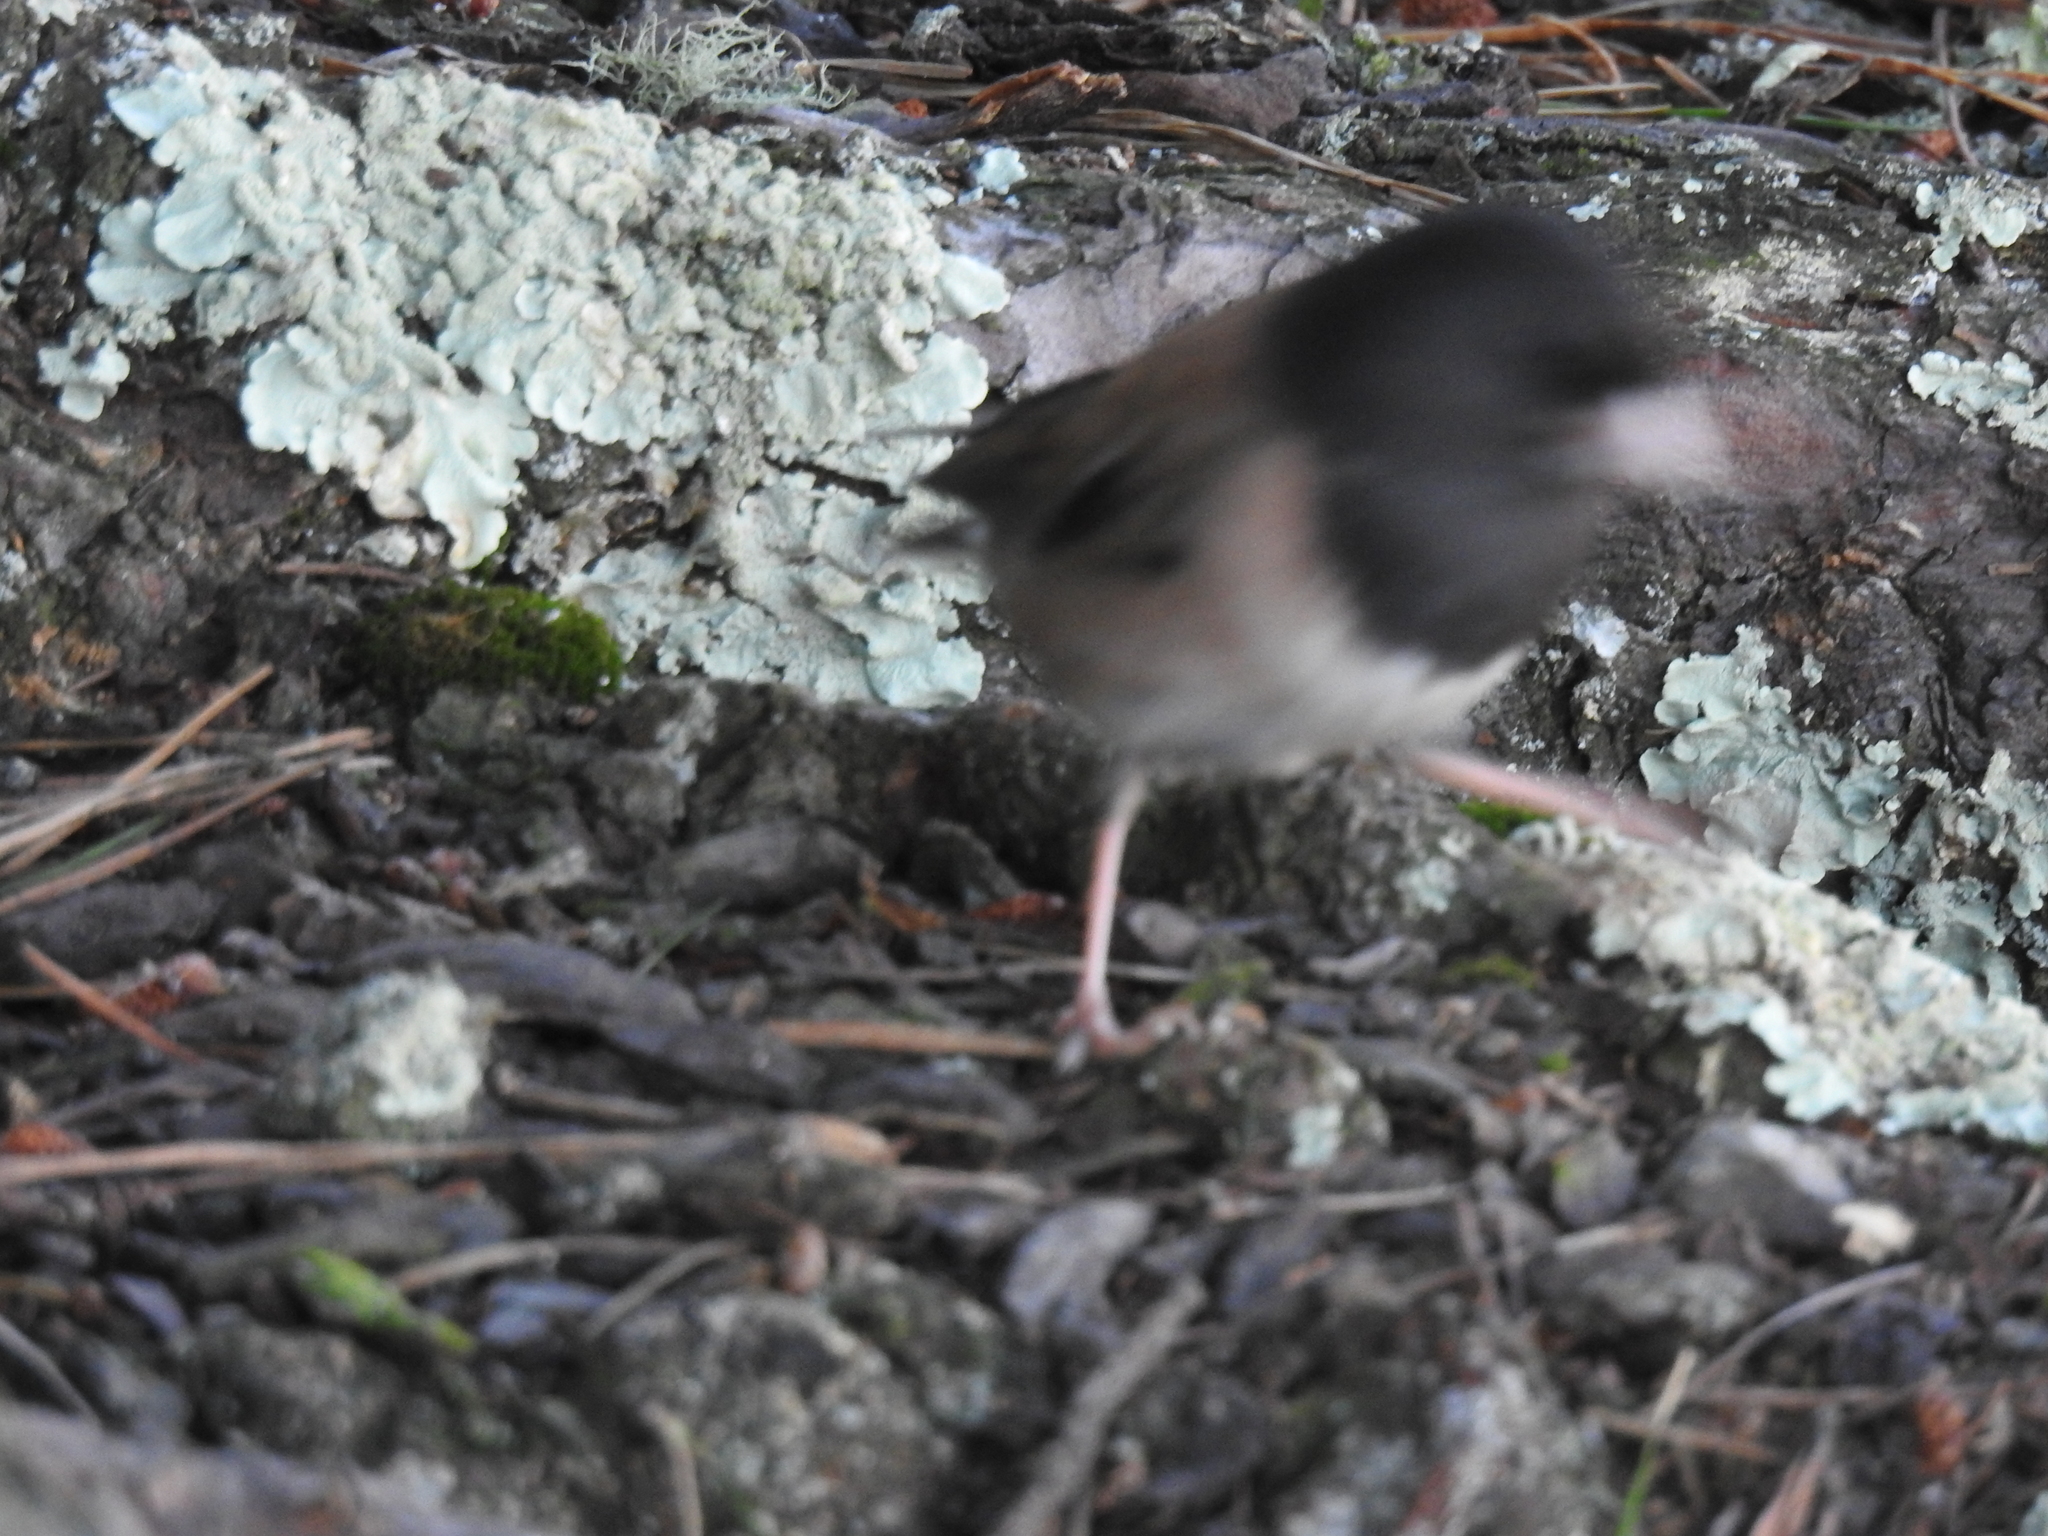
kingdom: Animalia
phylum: Chordata
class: Aves
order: Passeriformes
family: Passerellidae
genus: Junco
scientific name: Junco hyemalis
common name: Dark-eyed junco
